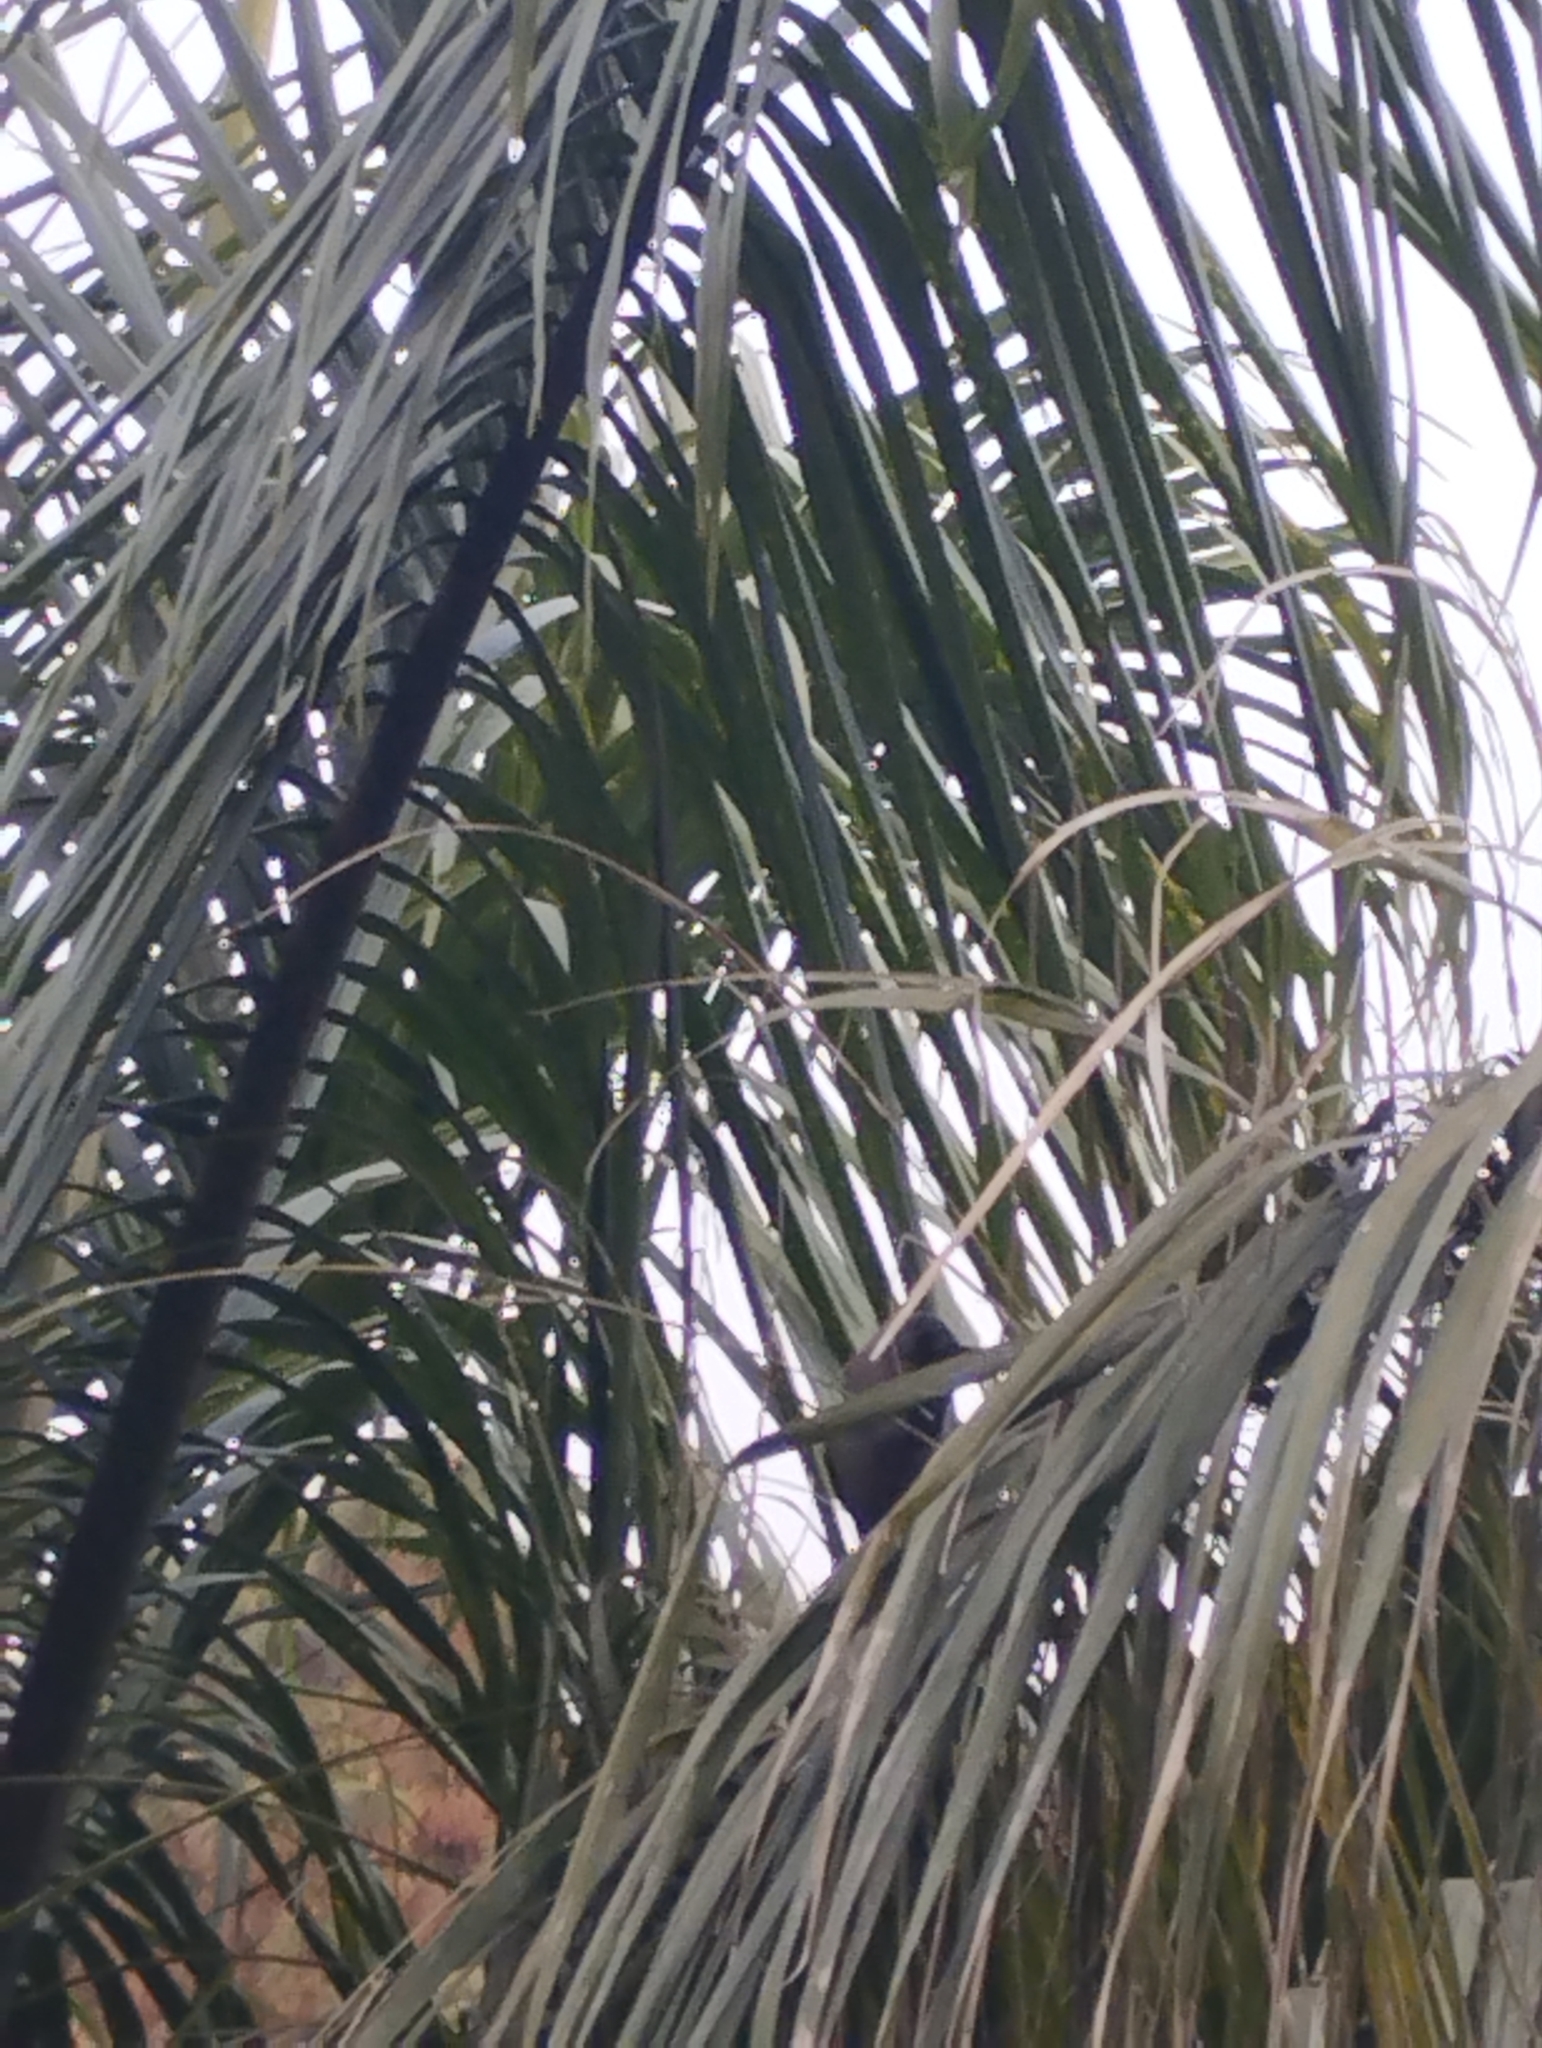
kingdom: Animalia
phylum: Chordata
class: Aves
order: Passeriformes
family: Corvidae
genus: Corvus
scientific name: Corvus splendens
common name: House crow
